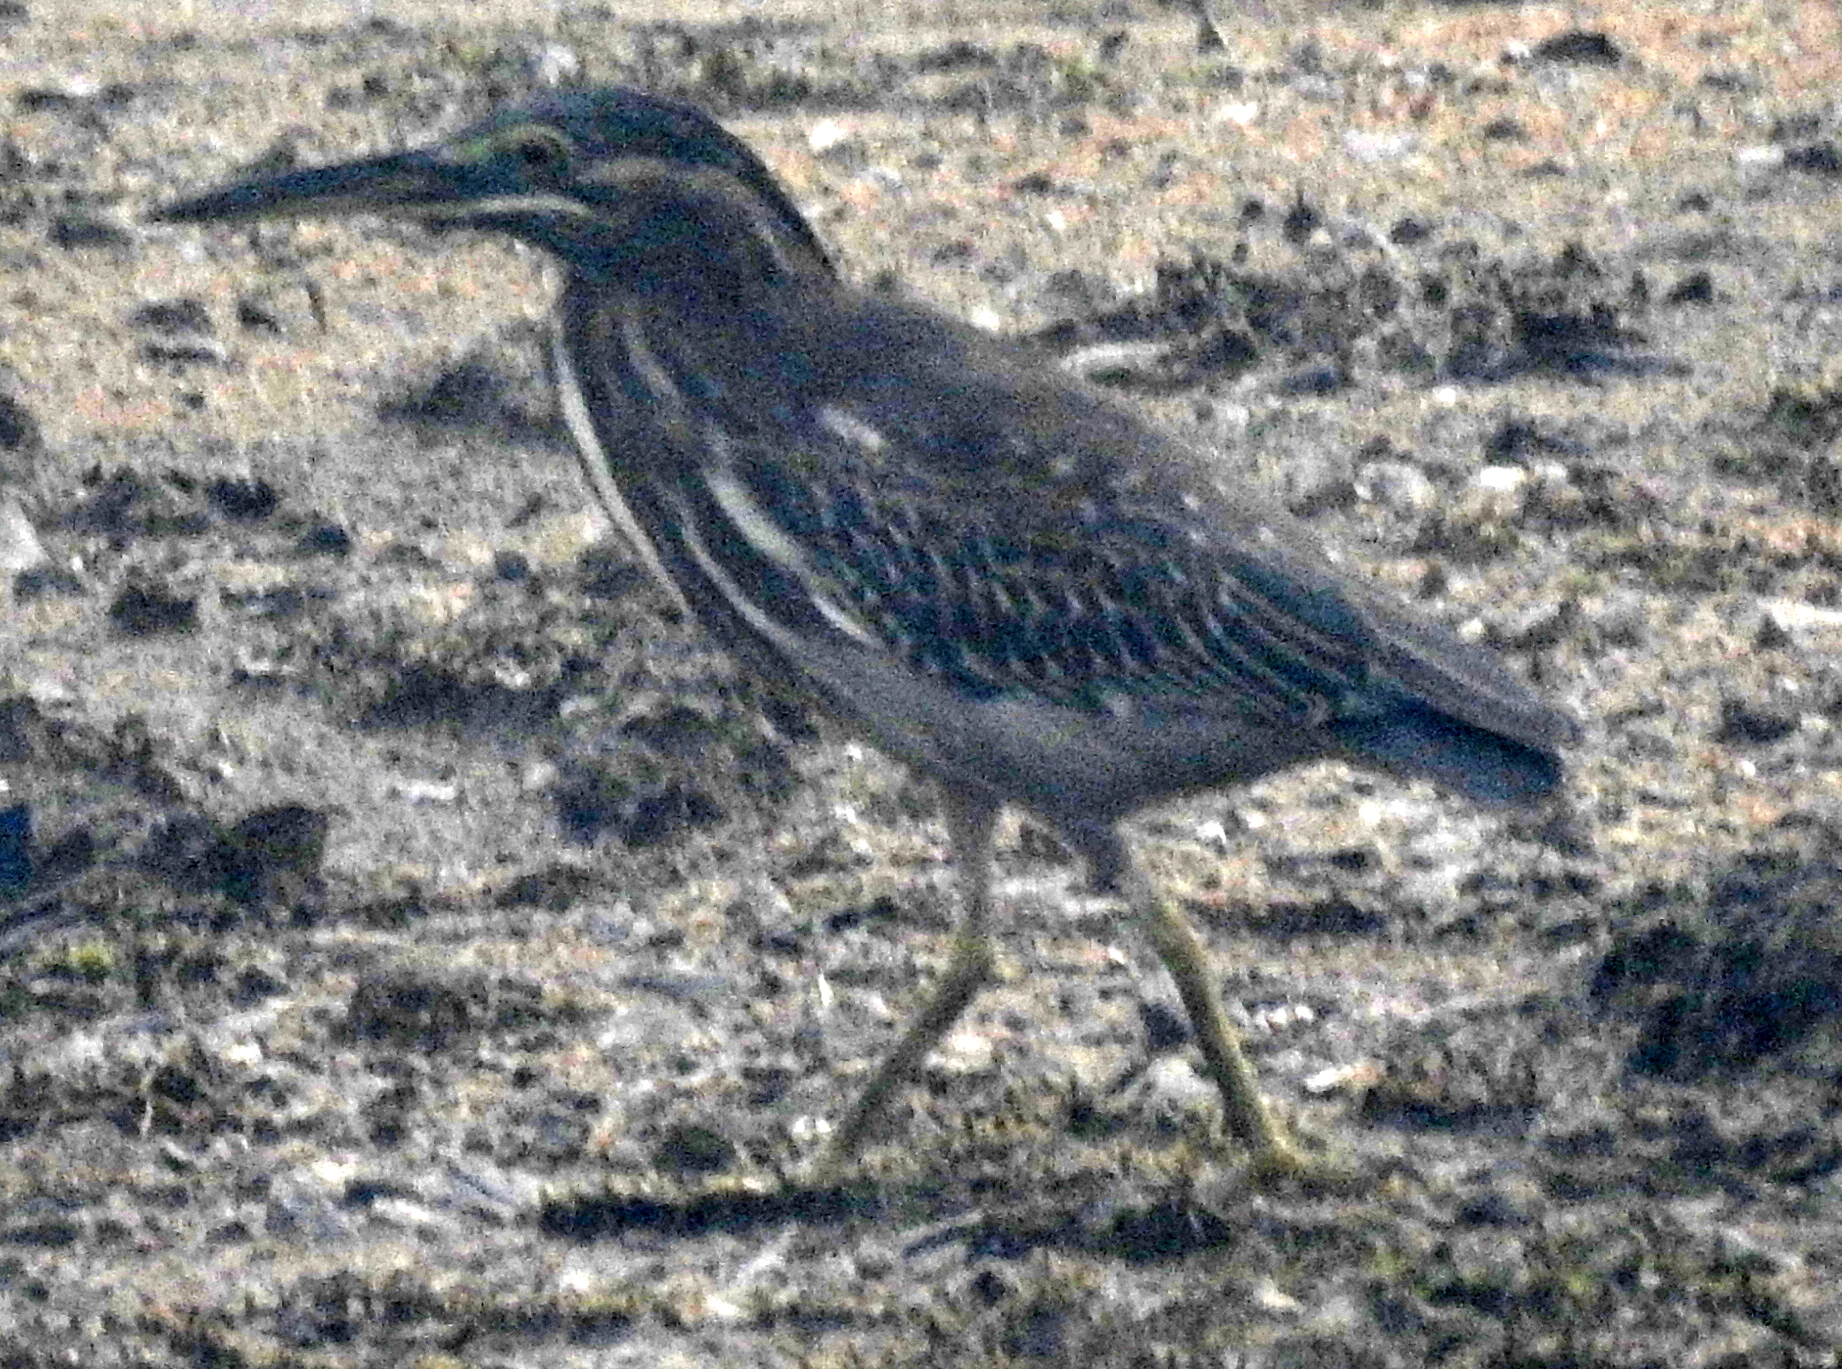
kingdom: Animalia
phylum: Chordata
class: Aves
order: Pelecaniformes
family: Ardeidae
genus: Butorides
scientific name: Butorides striata
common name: Striated heron
